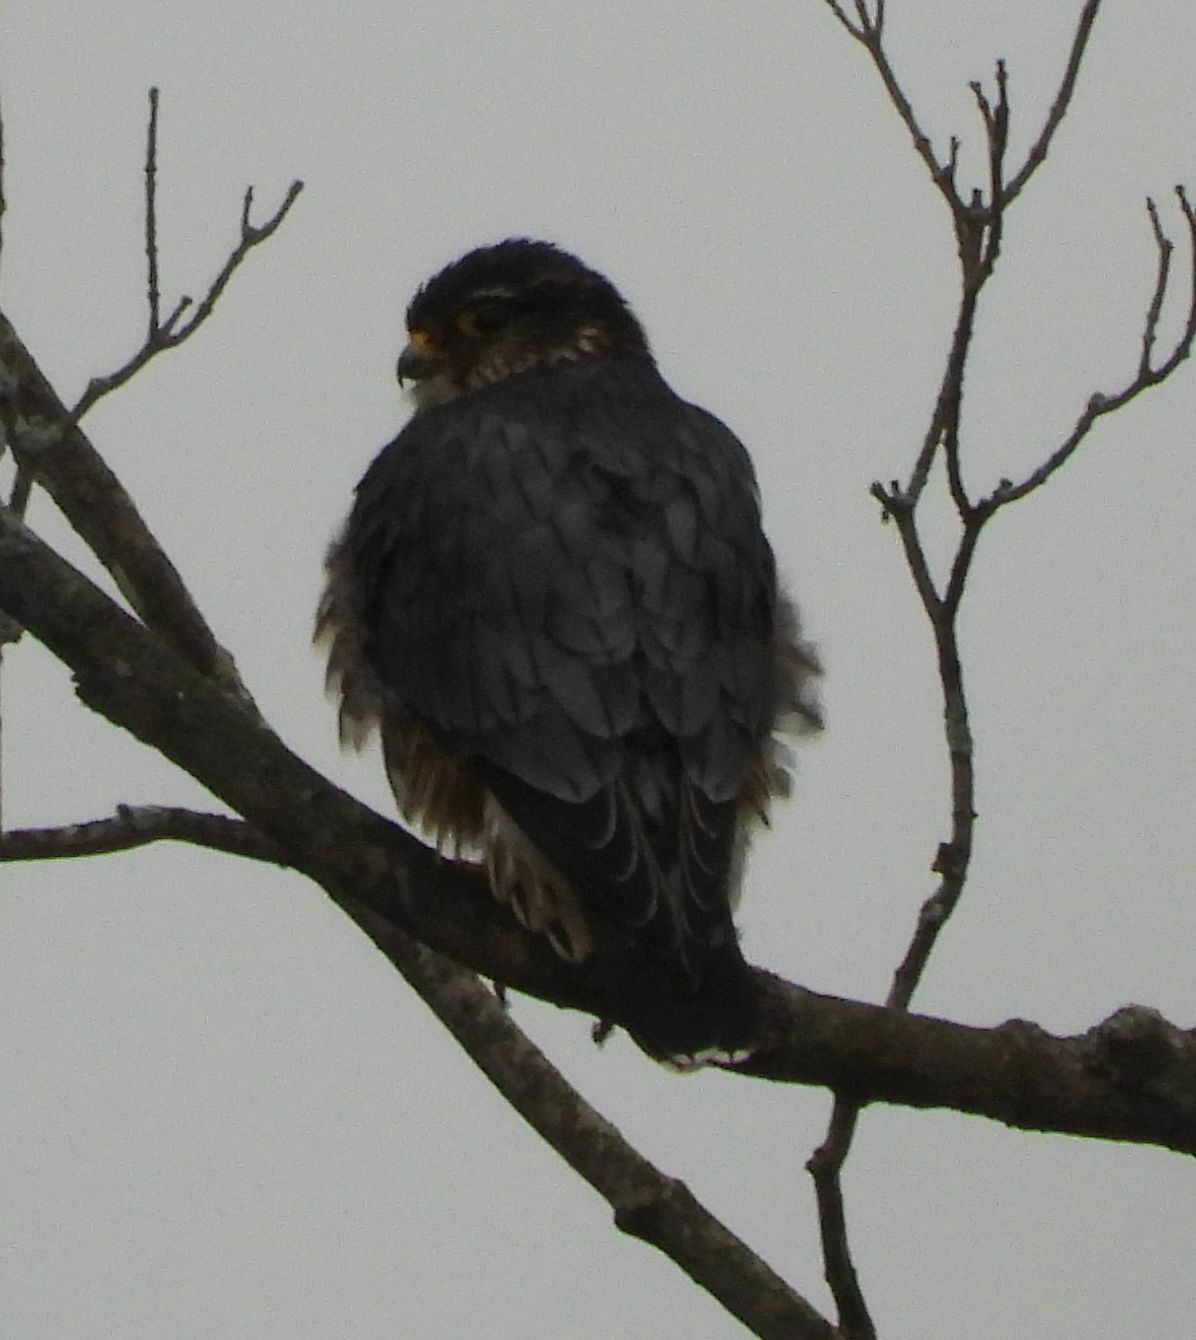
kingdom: Animalia
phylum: Chordata
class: Aves
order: Falconiformes
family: Falconidae
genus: Falco
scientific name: Falco columbarius
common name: Merlin
